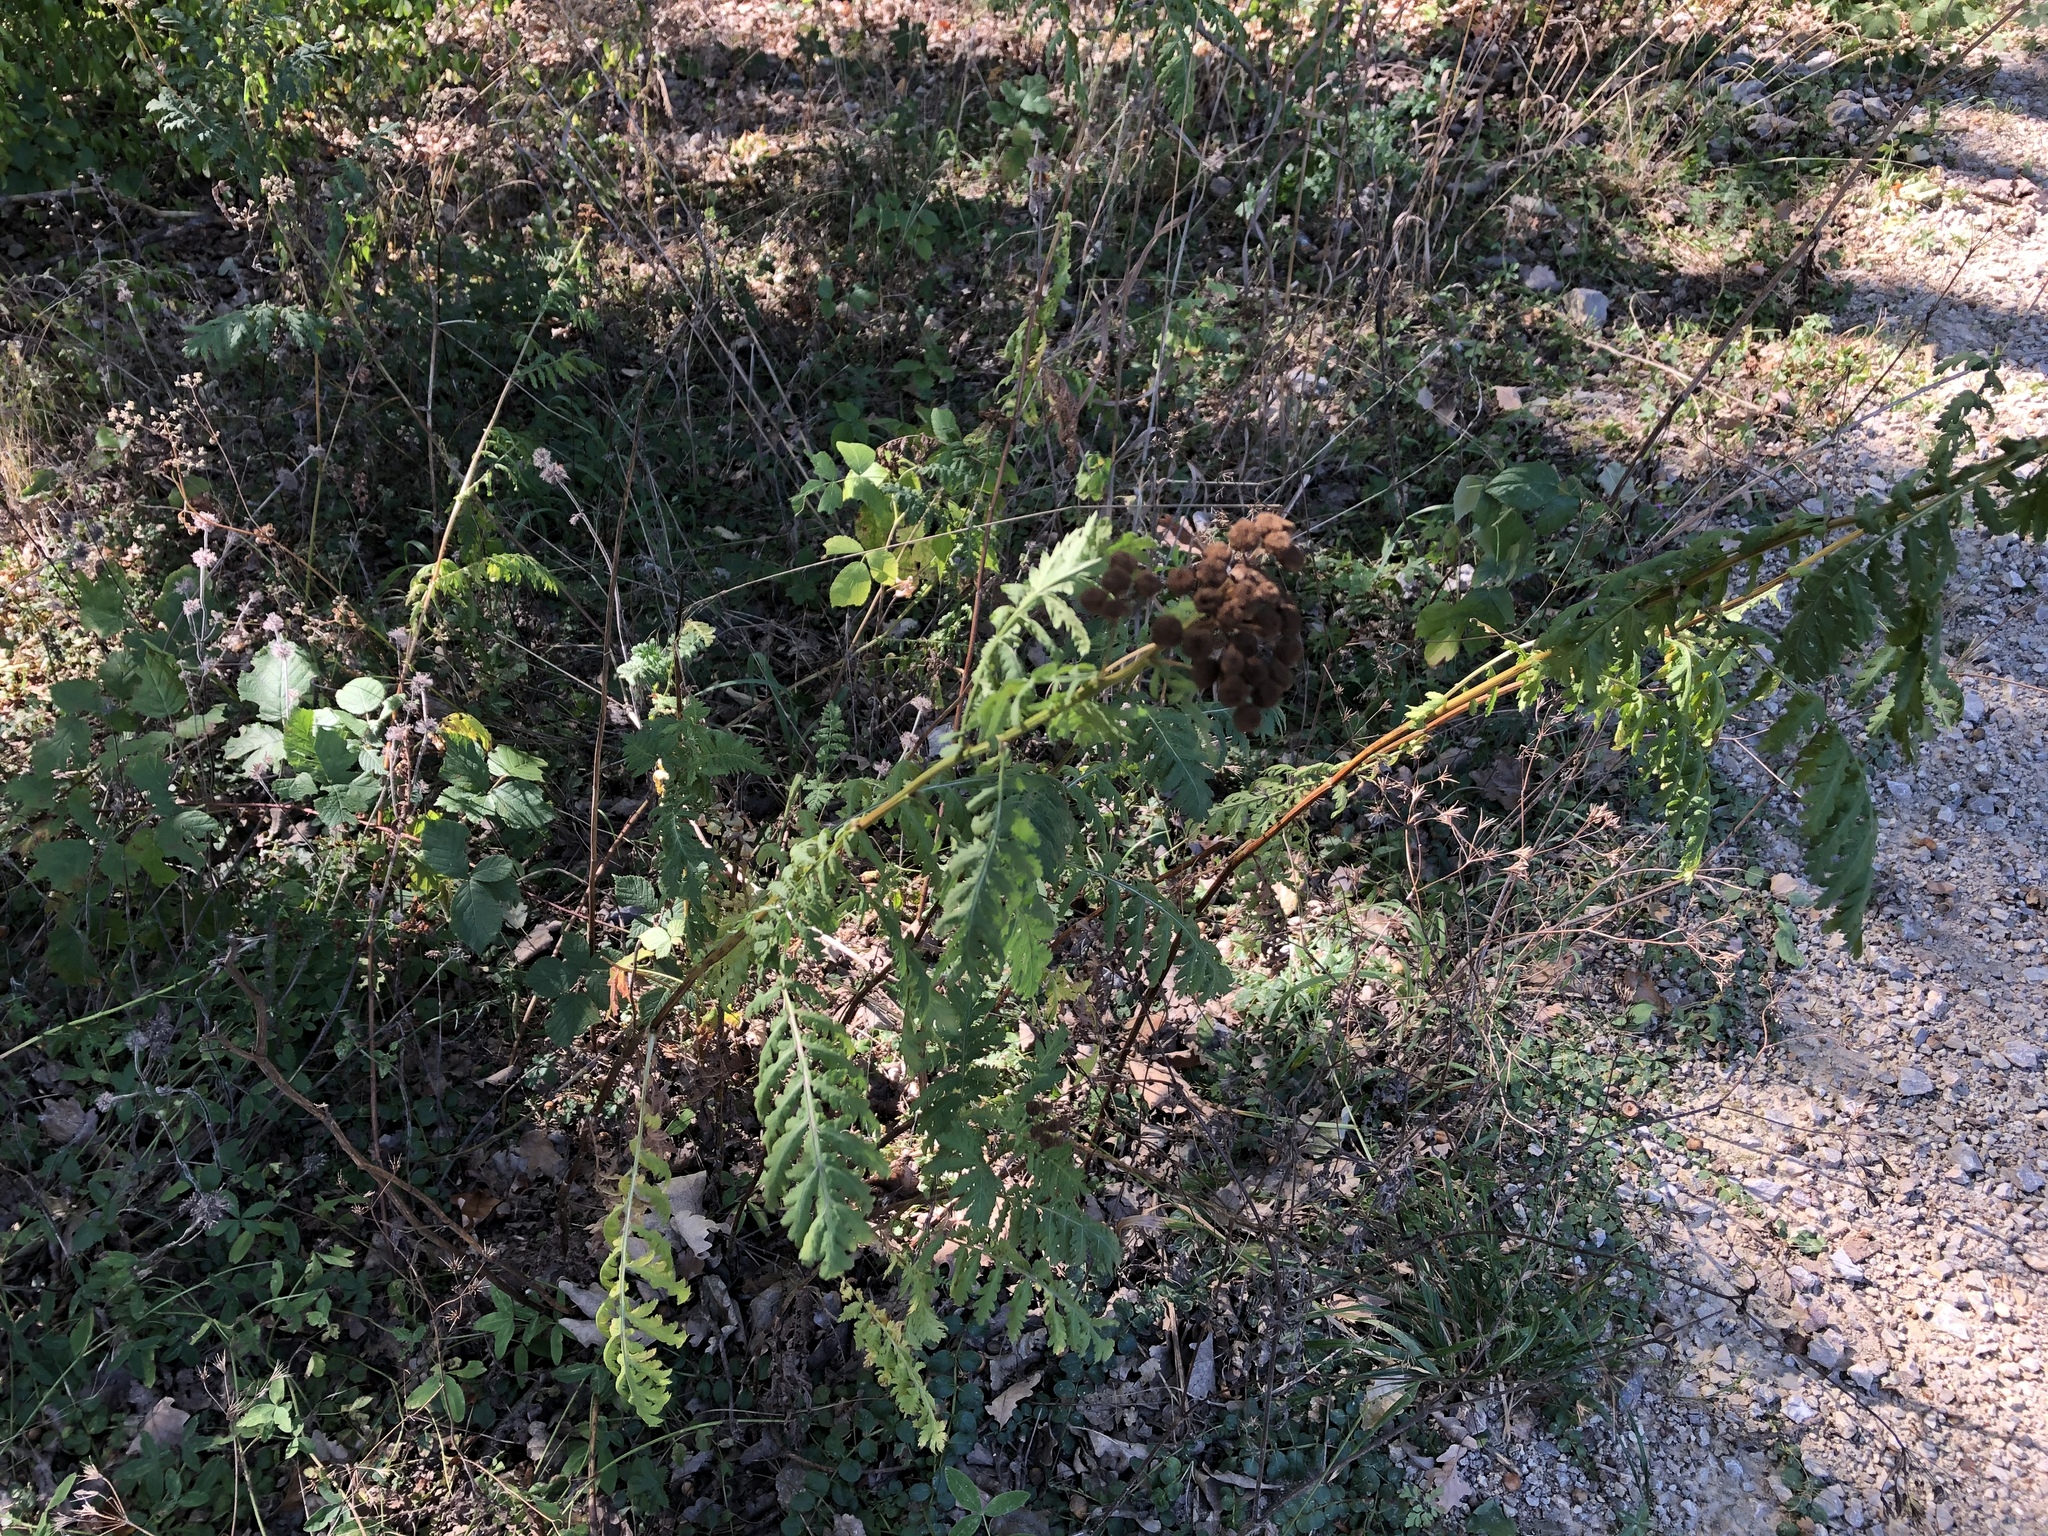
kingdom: Plantae
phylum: Tracheophyta
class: Magnoliopsida
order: Asterales
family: Asteraceae
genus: Tanacetum
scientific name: Tanacetum vulgare
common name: Common tansy
